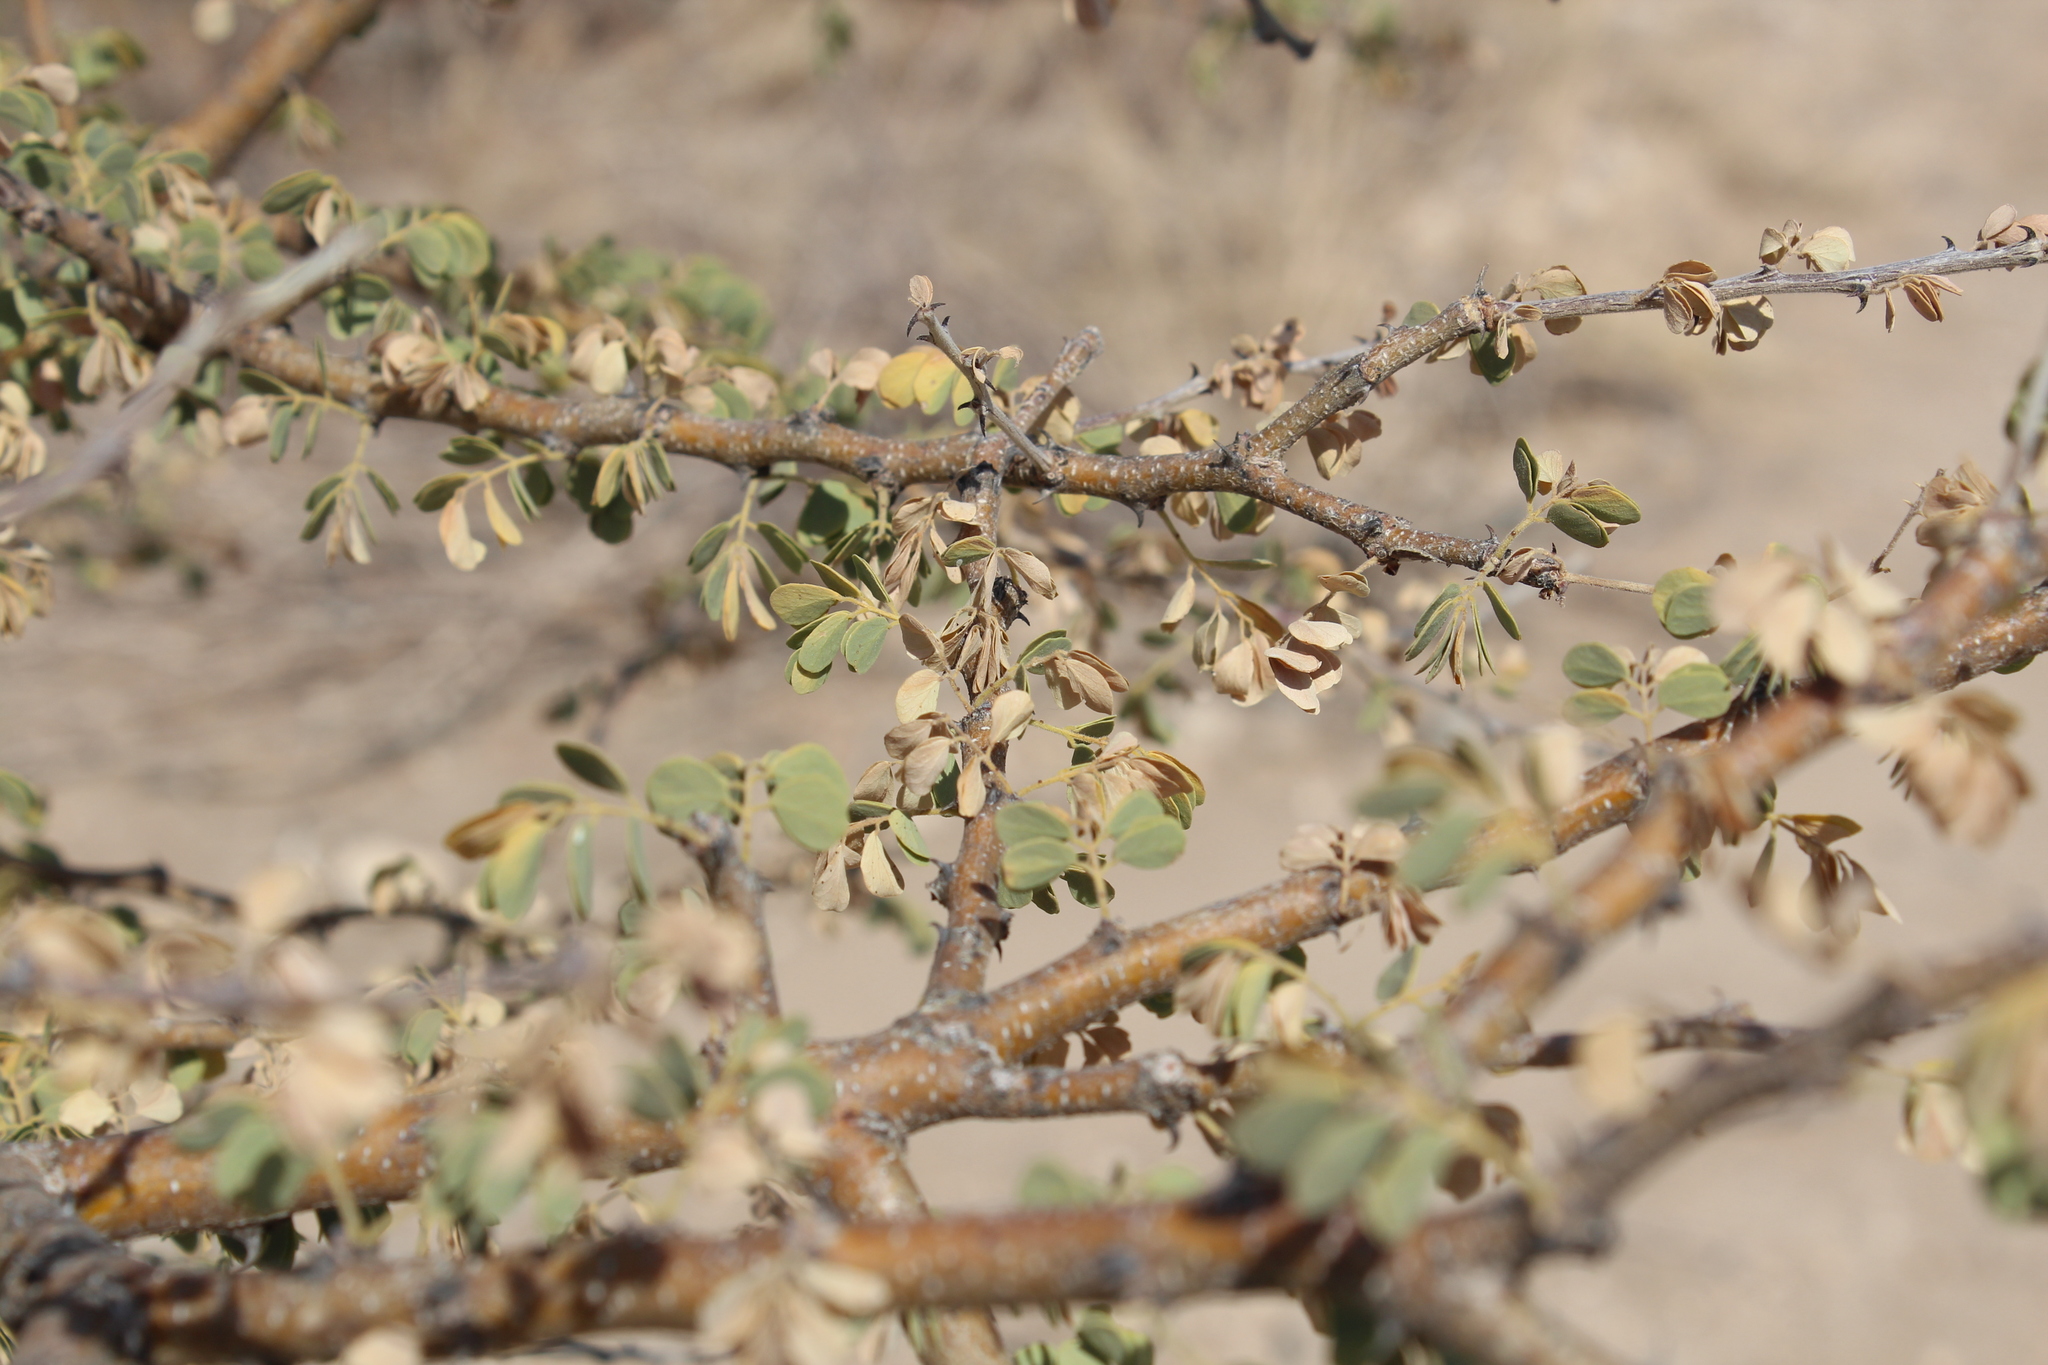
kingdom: Plantae
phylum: Tracheophyta
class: Magnoliopsida
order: Fabales
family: Fabaceae
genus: Senegalia
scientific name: Senegalia mellifera
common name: Hookthorn
